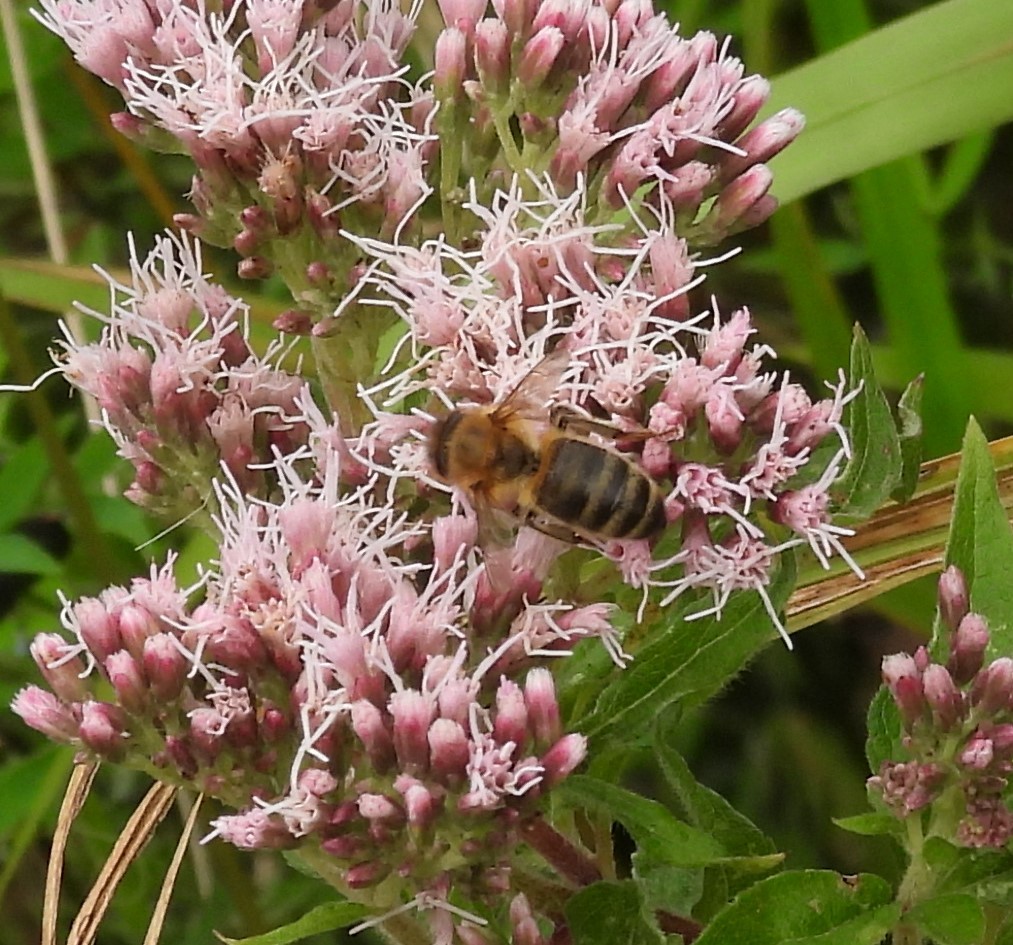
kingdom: Animalia
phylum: Arthropoda
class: Insecta
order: Hymenoptera
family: Apidae
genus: Apis
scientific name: Apis mellifera
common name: Honey bee
